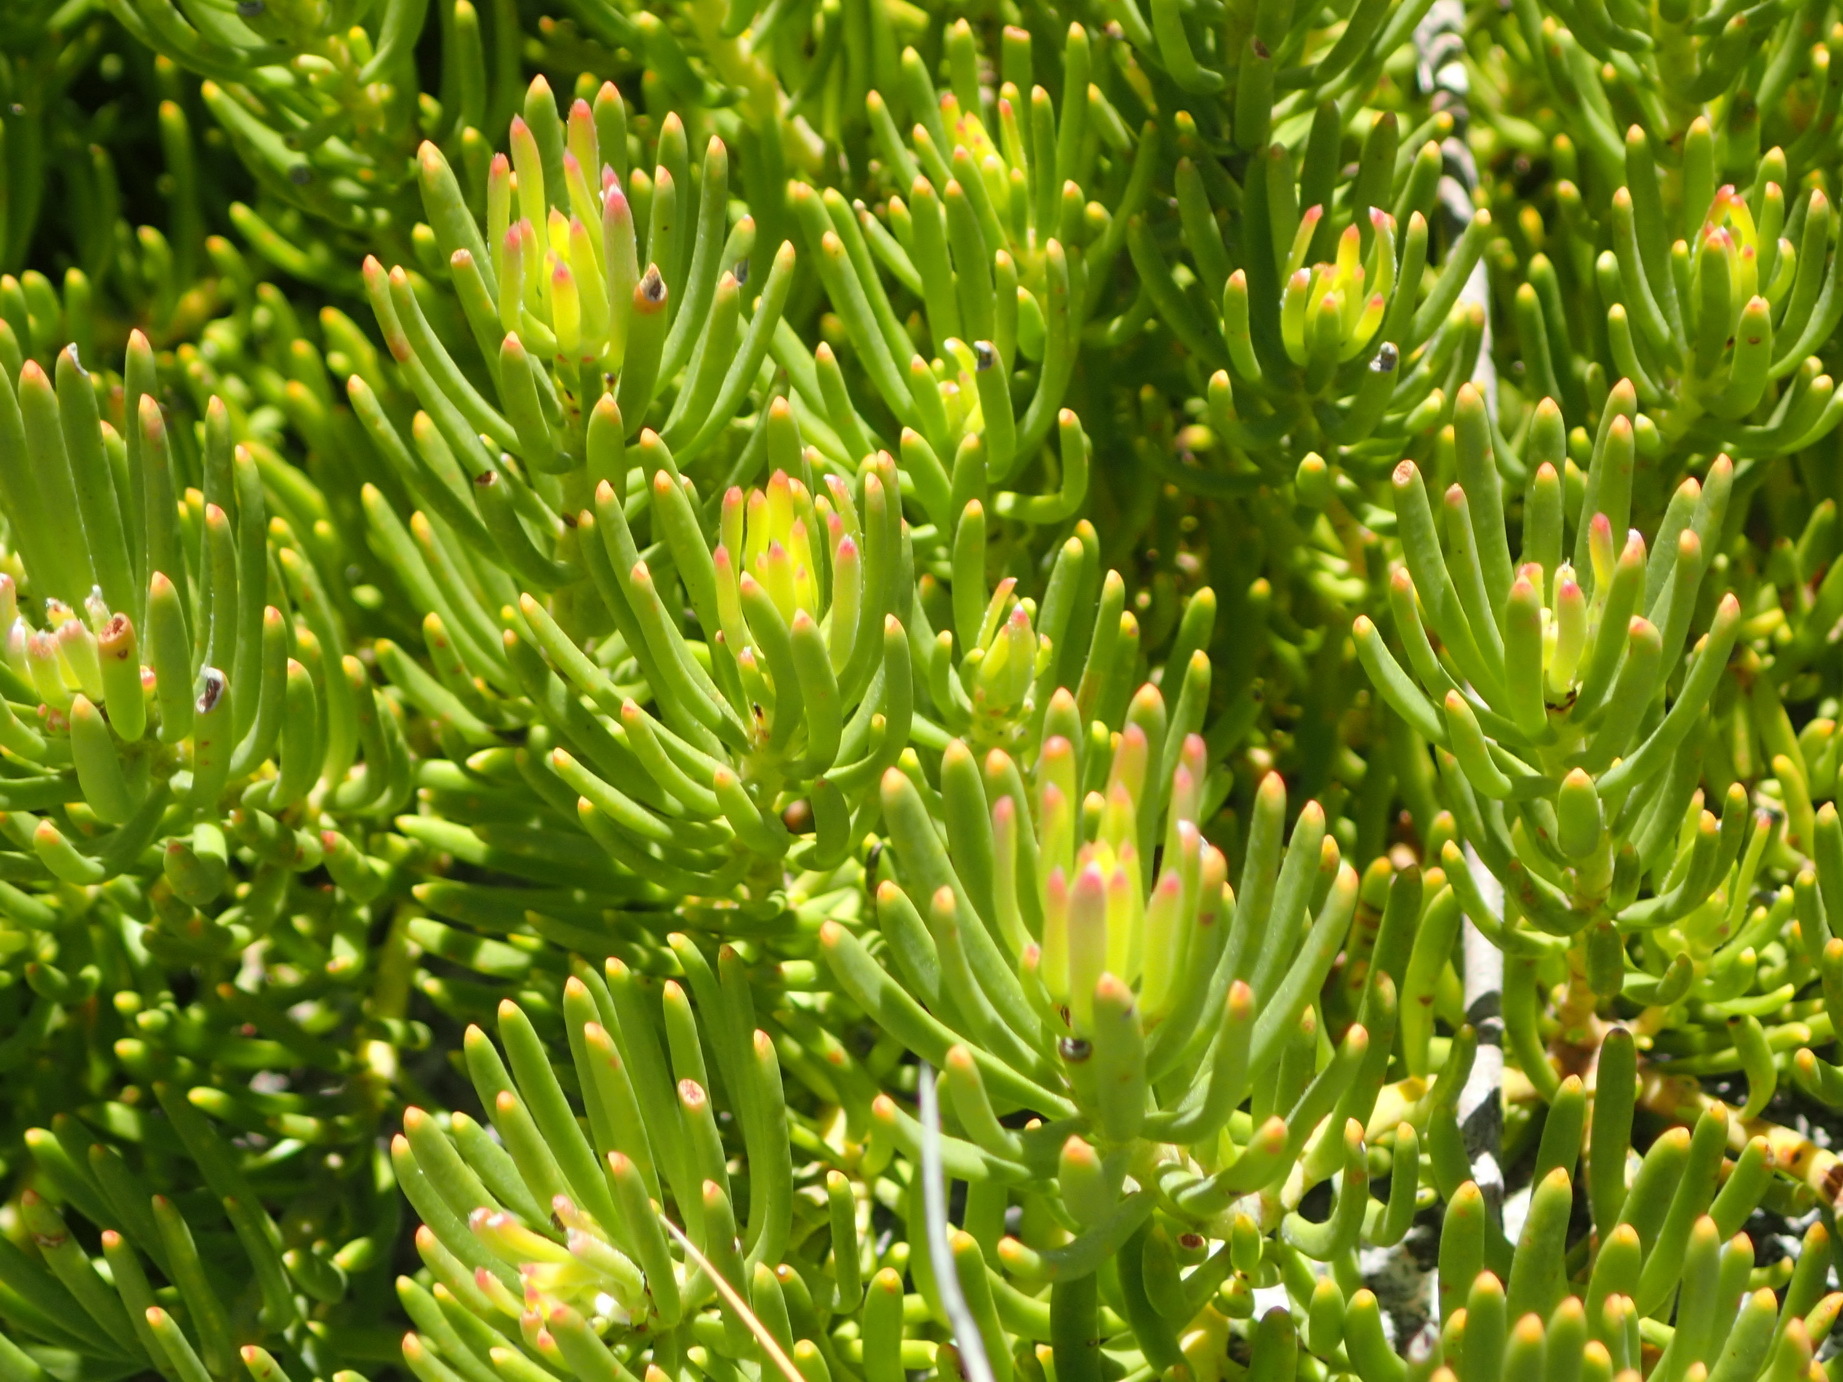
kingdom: Plantae
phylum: Tracheophyta
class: Magnoliopsida
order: Proteales
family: Proteaceae
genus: Leucadendron
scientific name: Leucadendron dregei
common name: Summit conebush
